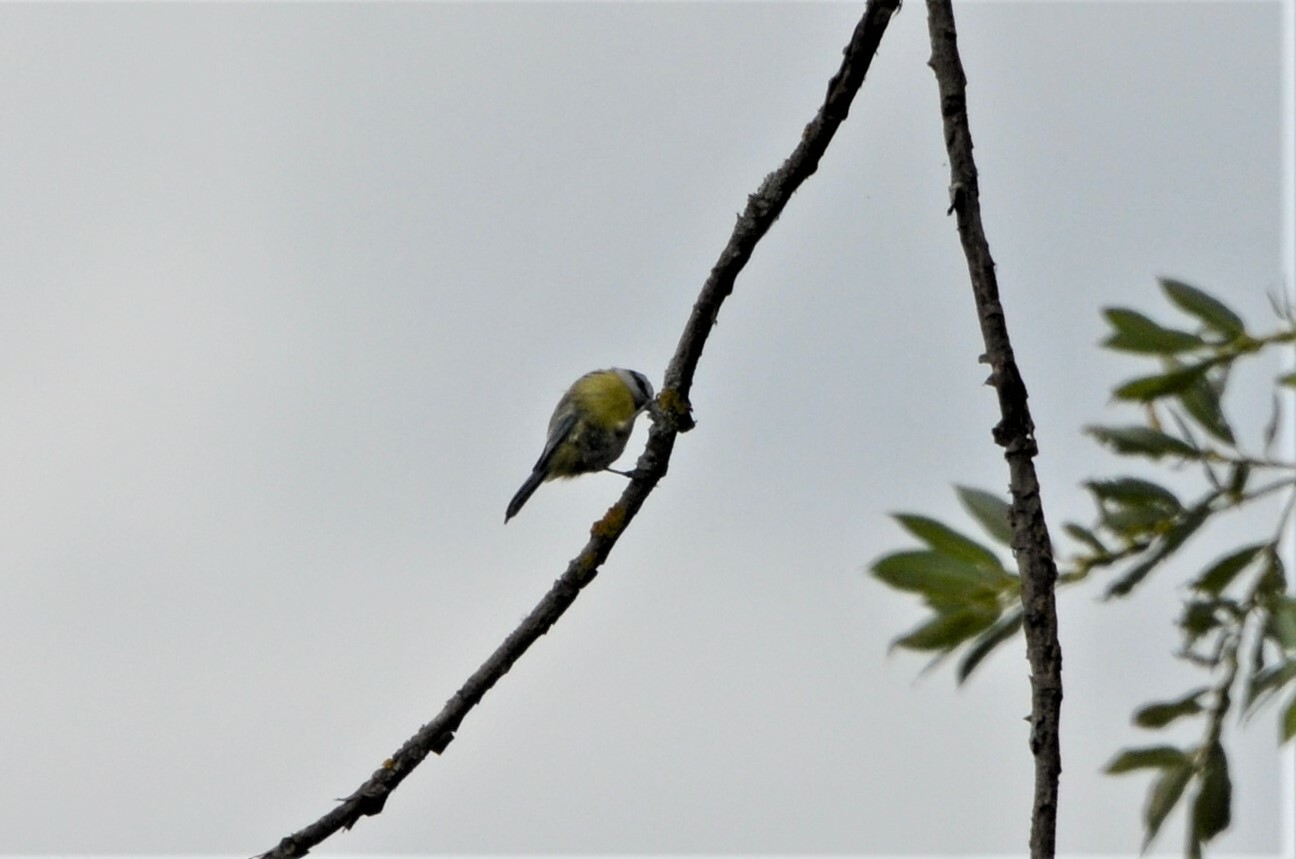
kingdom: Animalia
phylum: Chordata
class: Aves
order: Passeriformes
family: Paridae
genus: Cyanistes
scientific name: Cyanistes caeruleus
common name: Eurasian blue tit
